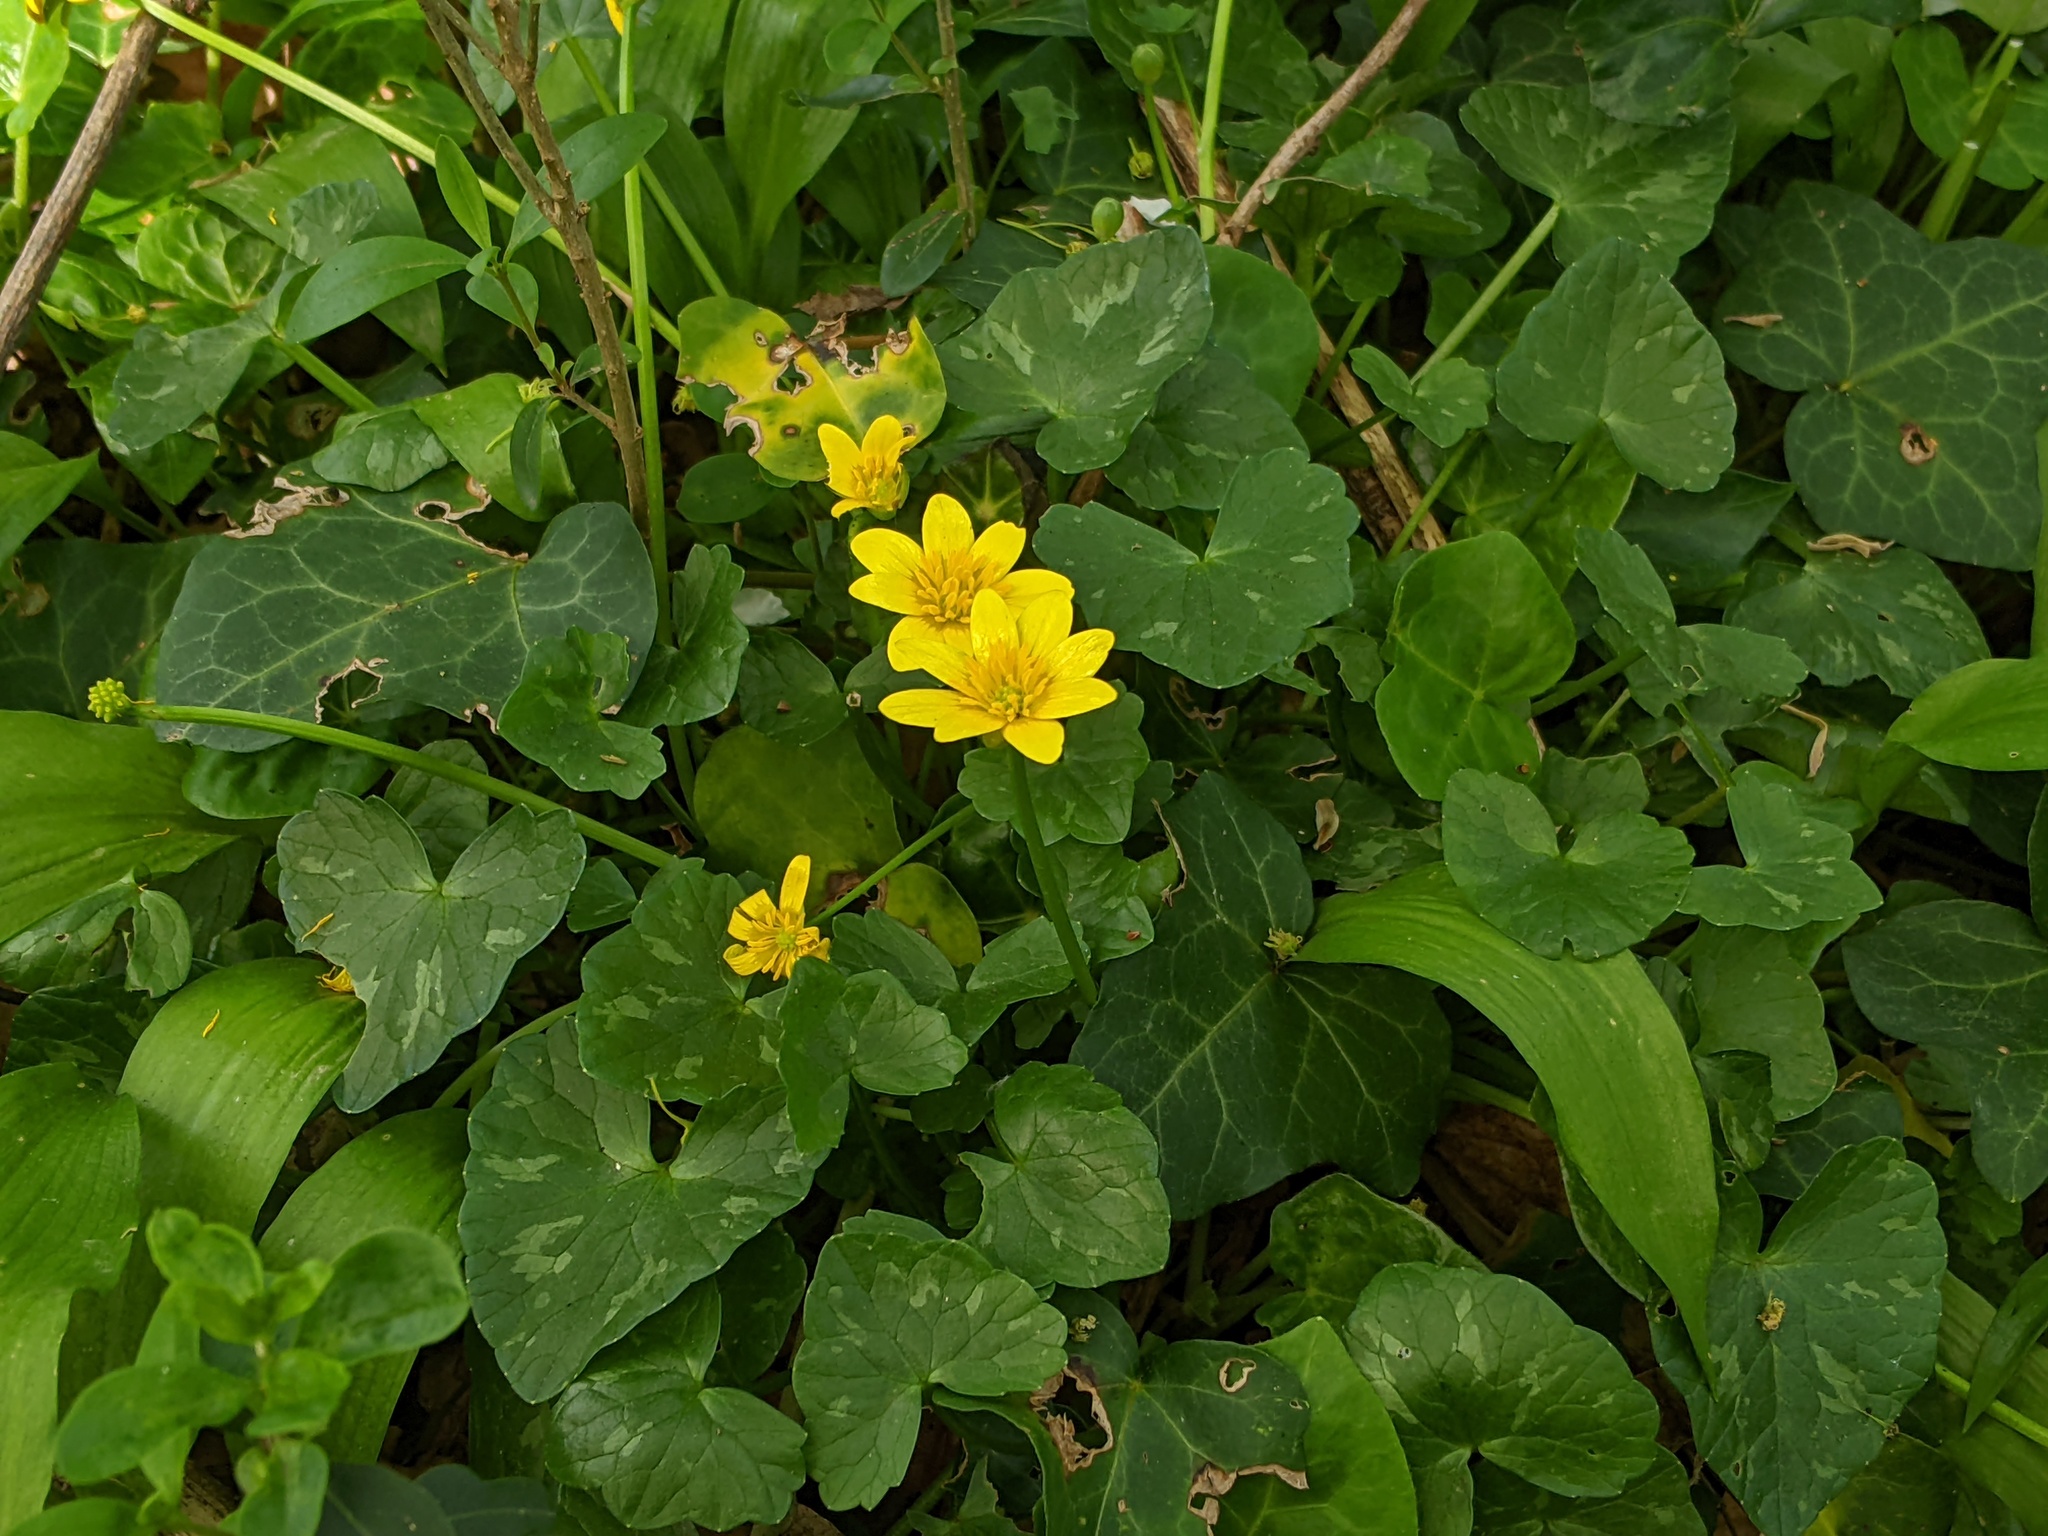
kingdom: Plantae
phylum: Tracheophyta
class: Magnoliopsida
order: Ranunculales
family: Ranunculaceae
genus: Ficaria
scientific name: Ficaria verna
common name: Lesser celandine
